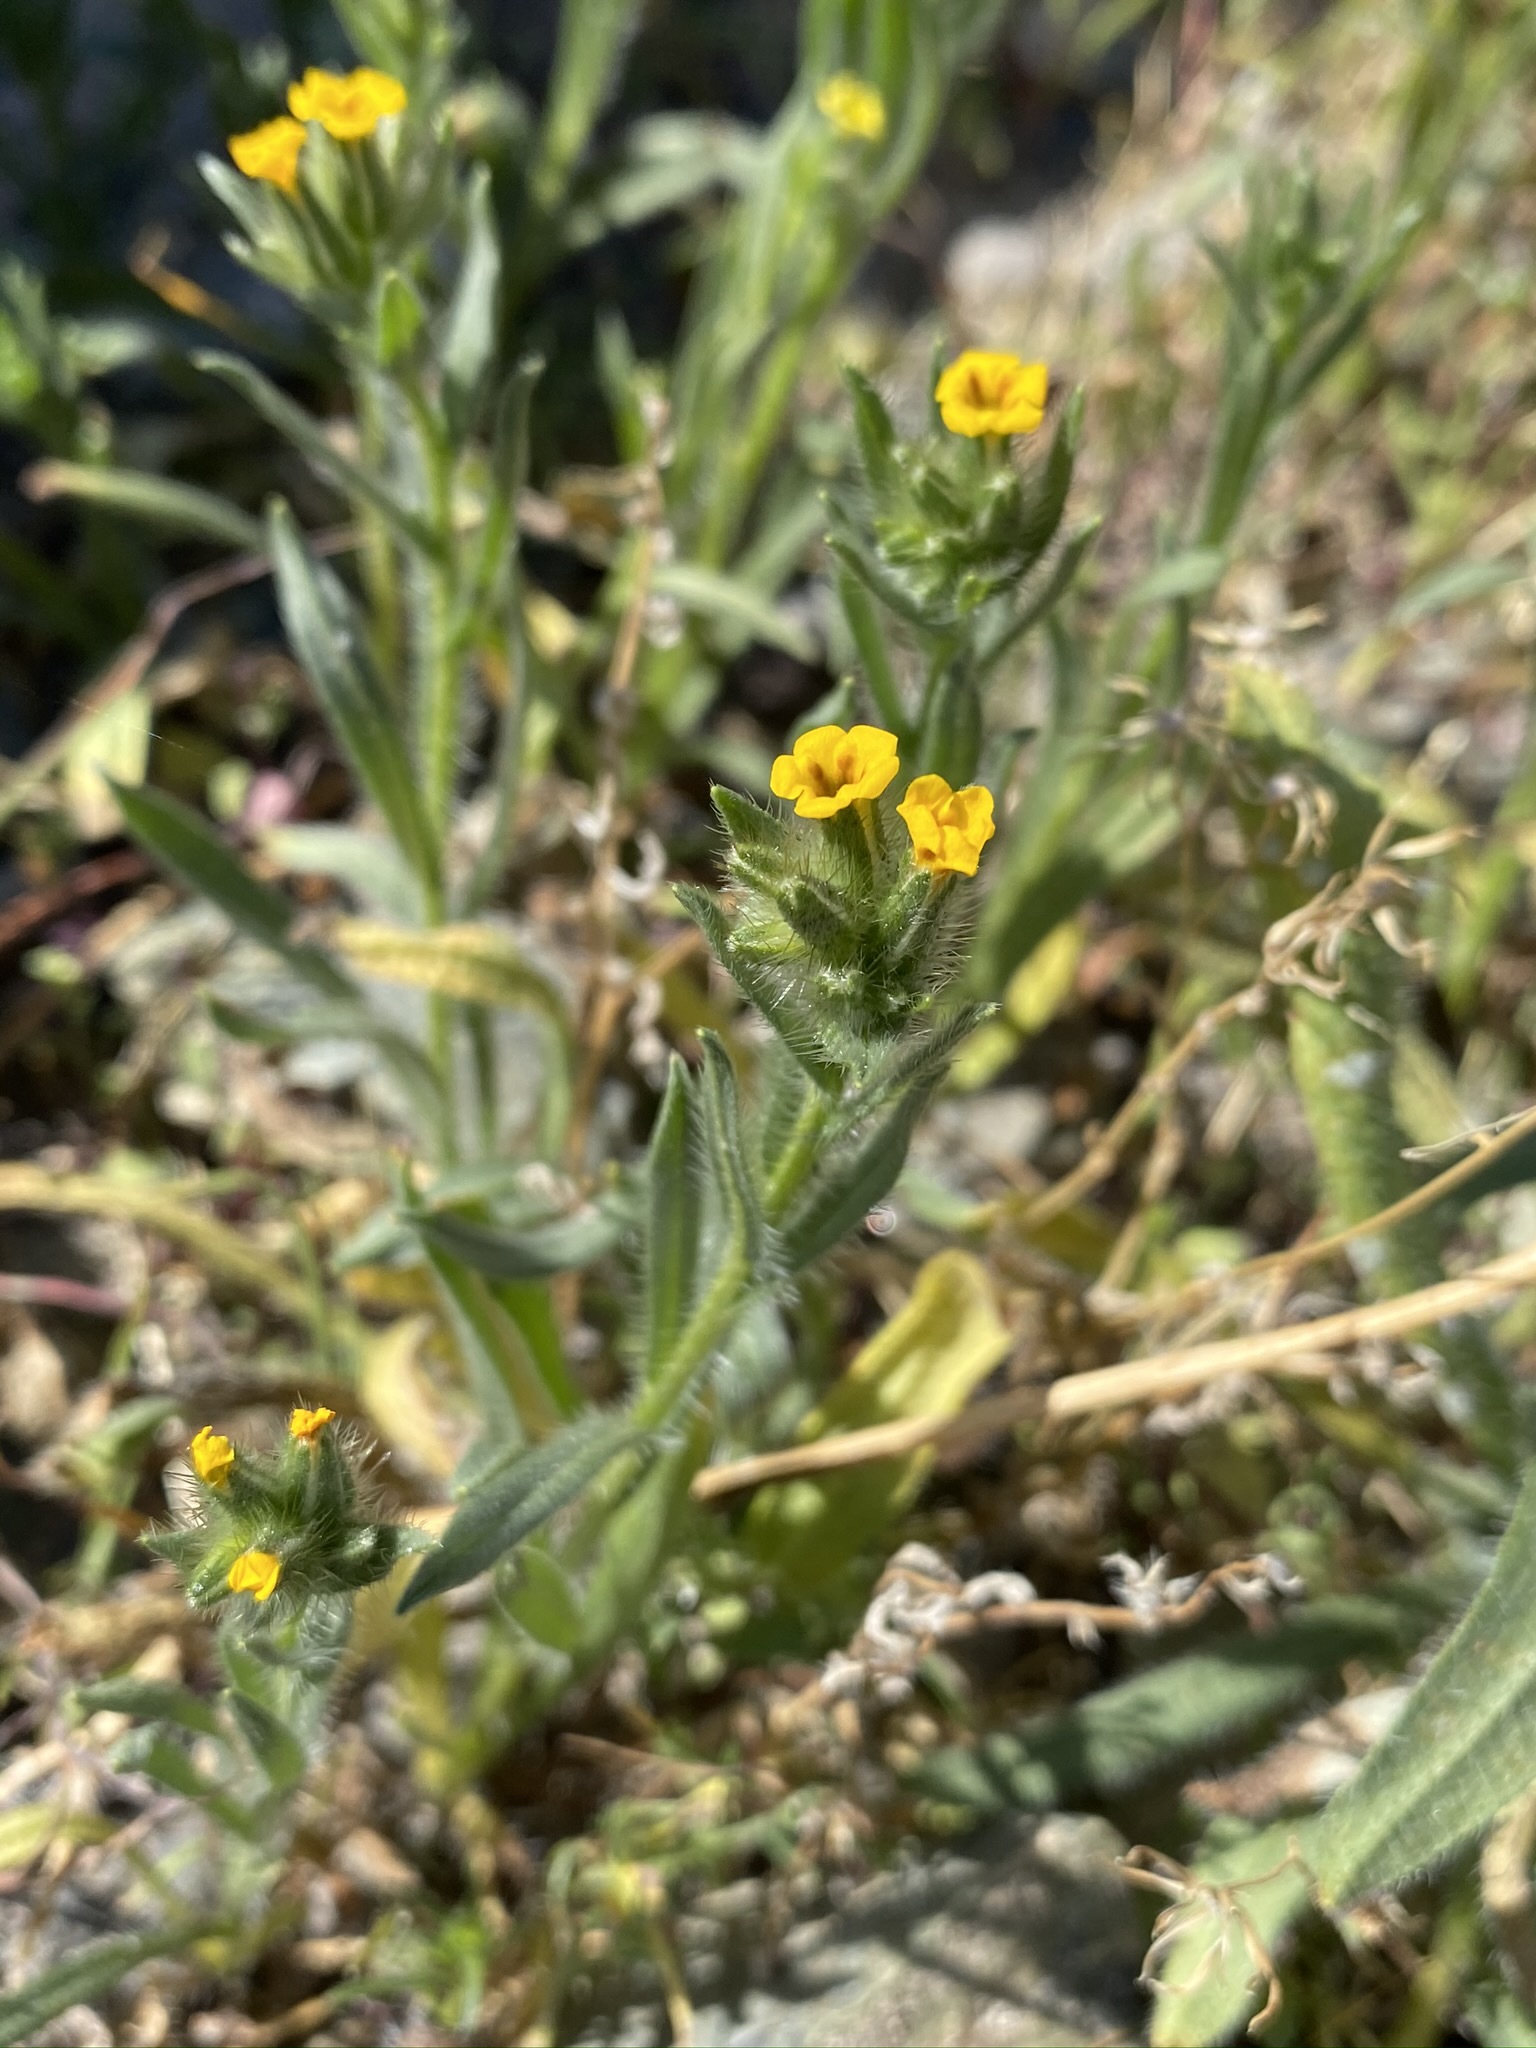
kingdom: Plantae
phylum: Tracheophyta
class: Magnoliopsida
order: Boraginales
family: Boraginaceae
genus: Amsinckia
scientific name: Amsinckia tessellata
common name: Tessellate fiddleneck
